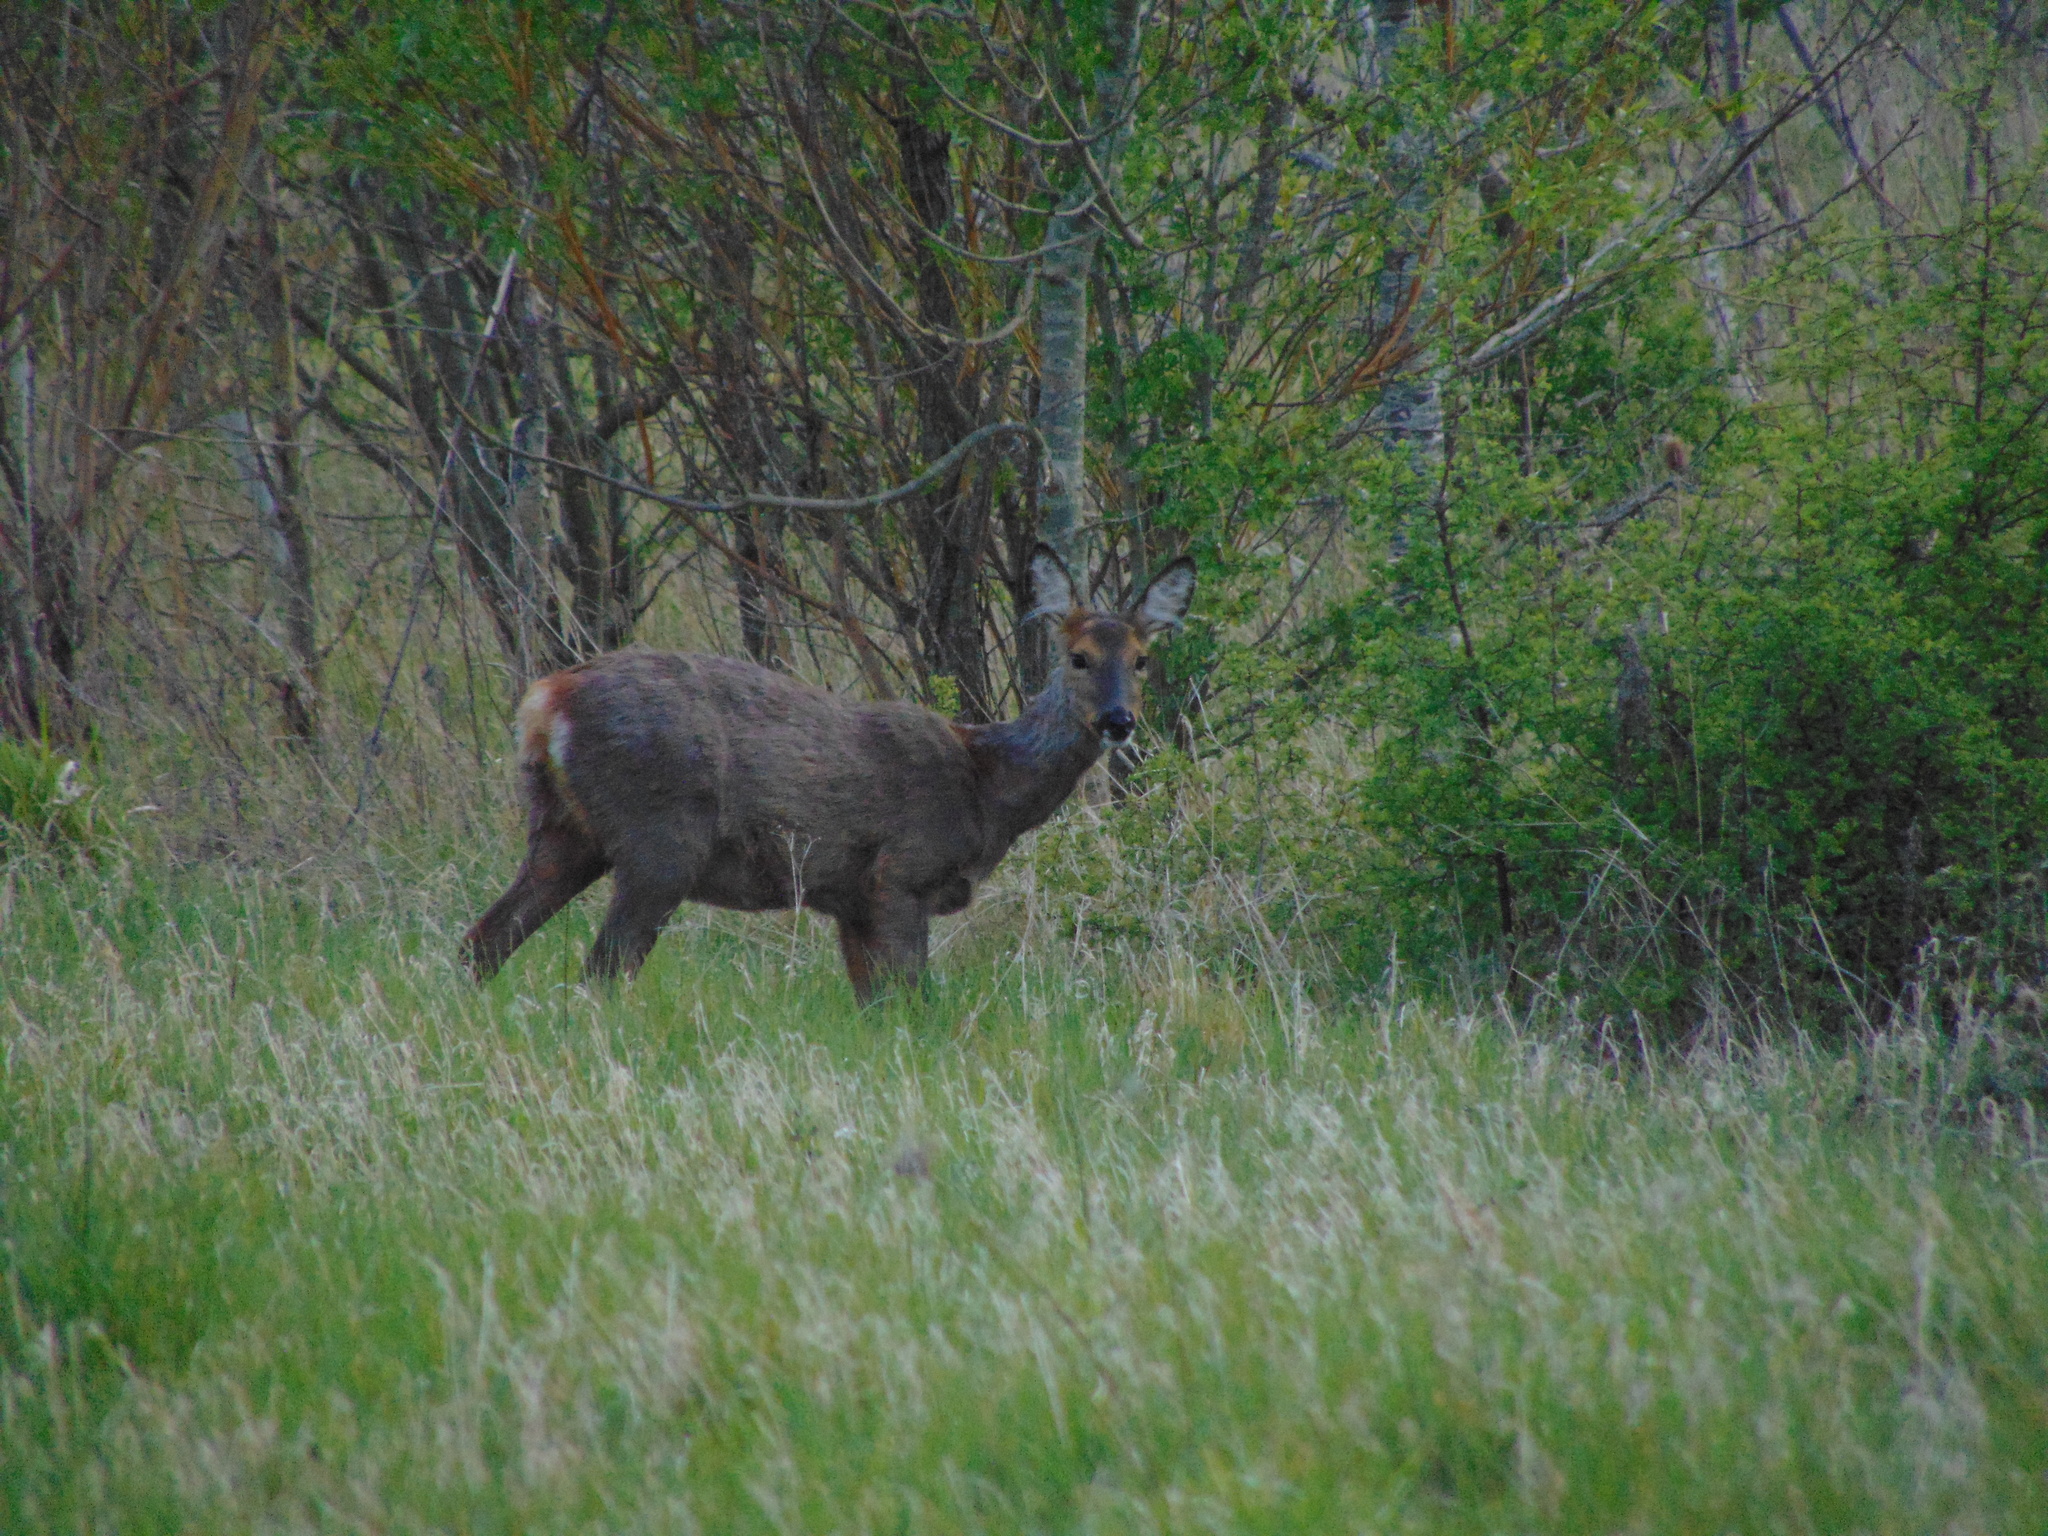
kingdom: Animalia
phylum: Chordata
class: Mammalia
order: Artiodactyla
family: Cervidae
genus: Capreolus
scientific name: Capreolus capreolus
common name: Western roe deer
